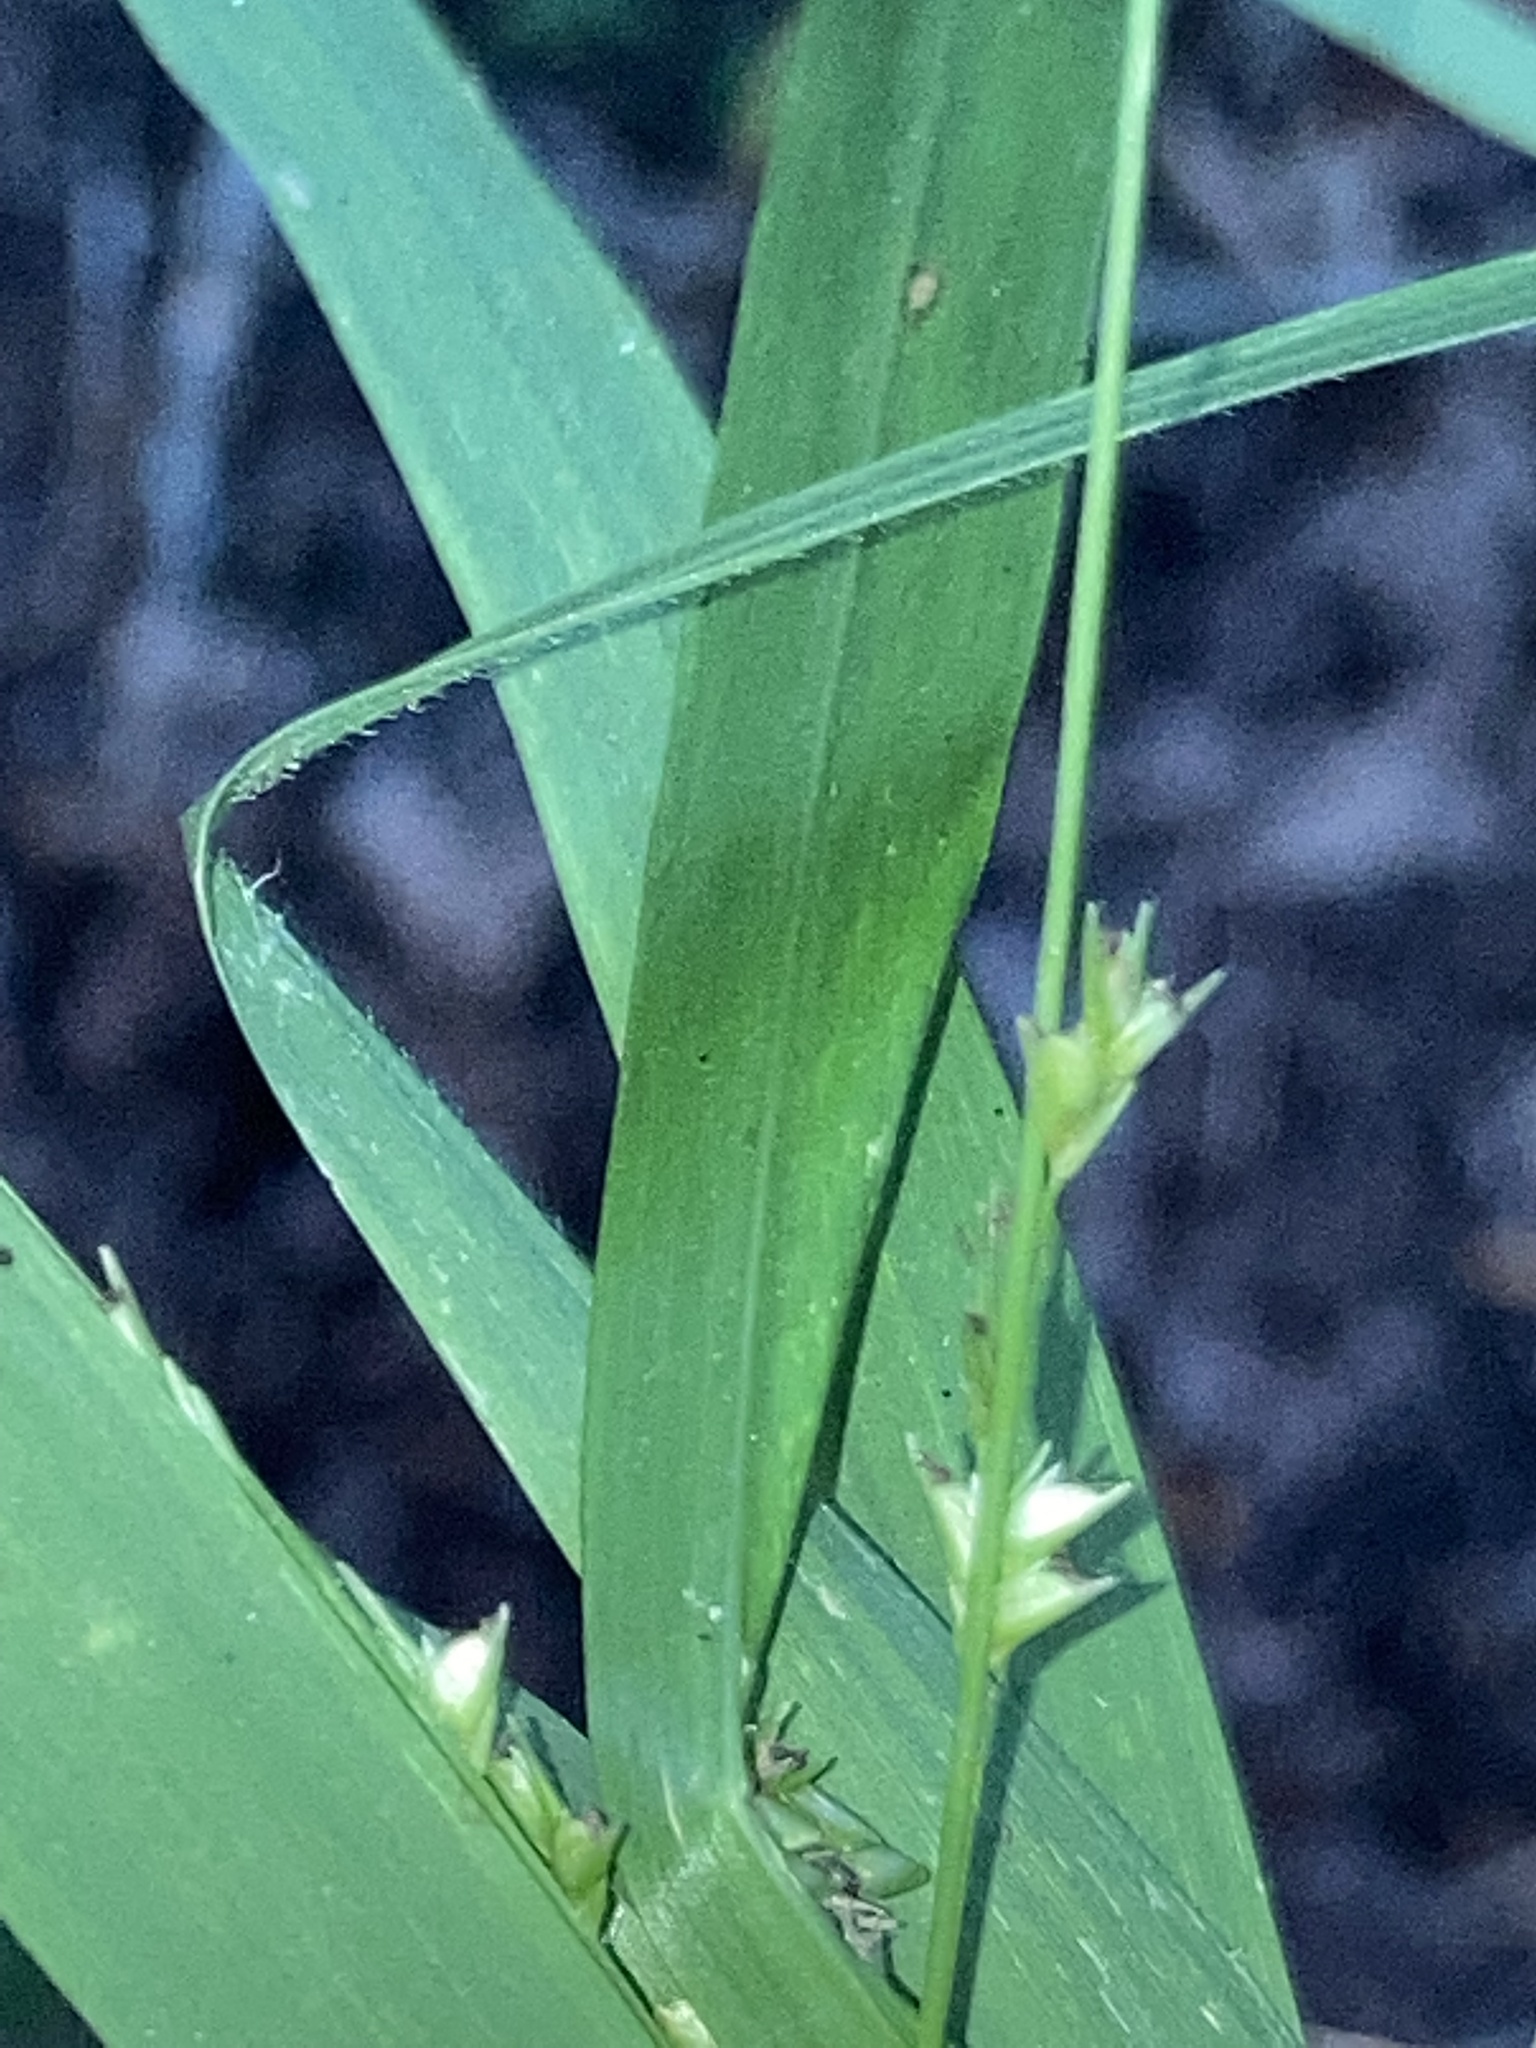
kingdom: Plantae
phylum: Tracheophyta
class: Liliopsida
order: Poales
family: Poaceae
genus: Chasmanthium
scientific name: Chasmanthium laxum
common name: Slender chasmanthium
